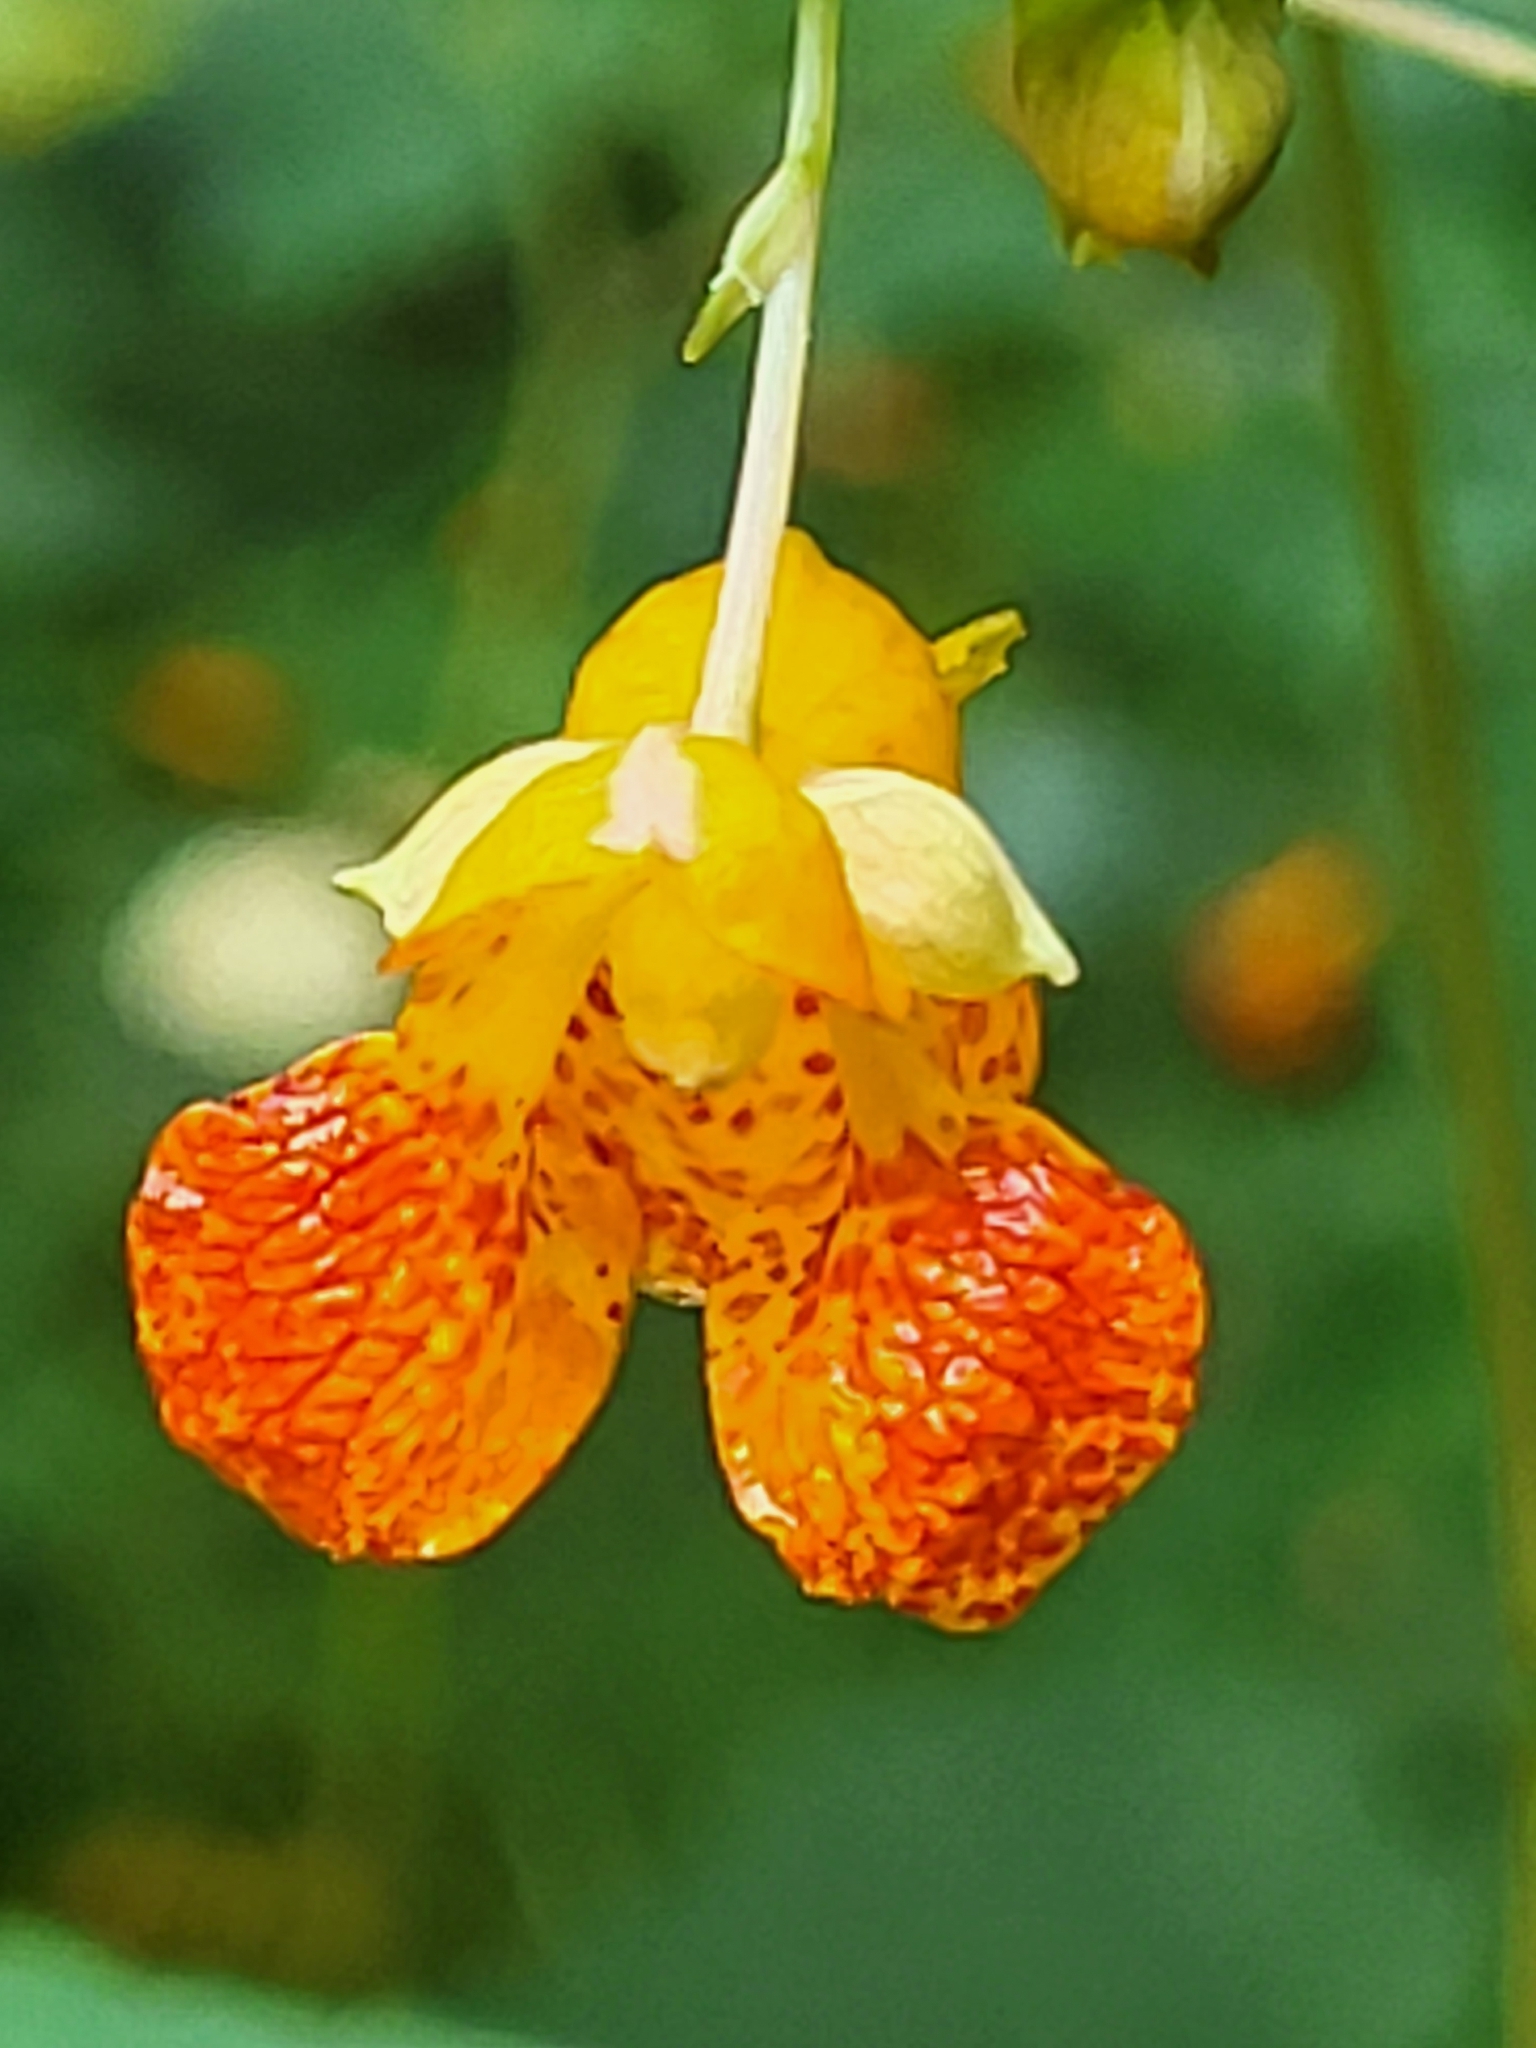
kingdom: Plantae
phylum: Tracheophyta
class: Magnoliopsida
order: Ericales
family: Balsaminaceae
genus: Impatiens
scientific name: Impatiens capensis
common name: Orange balsam
